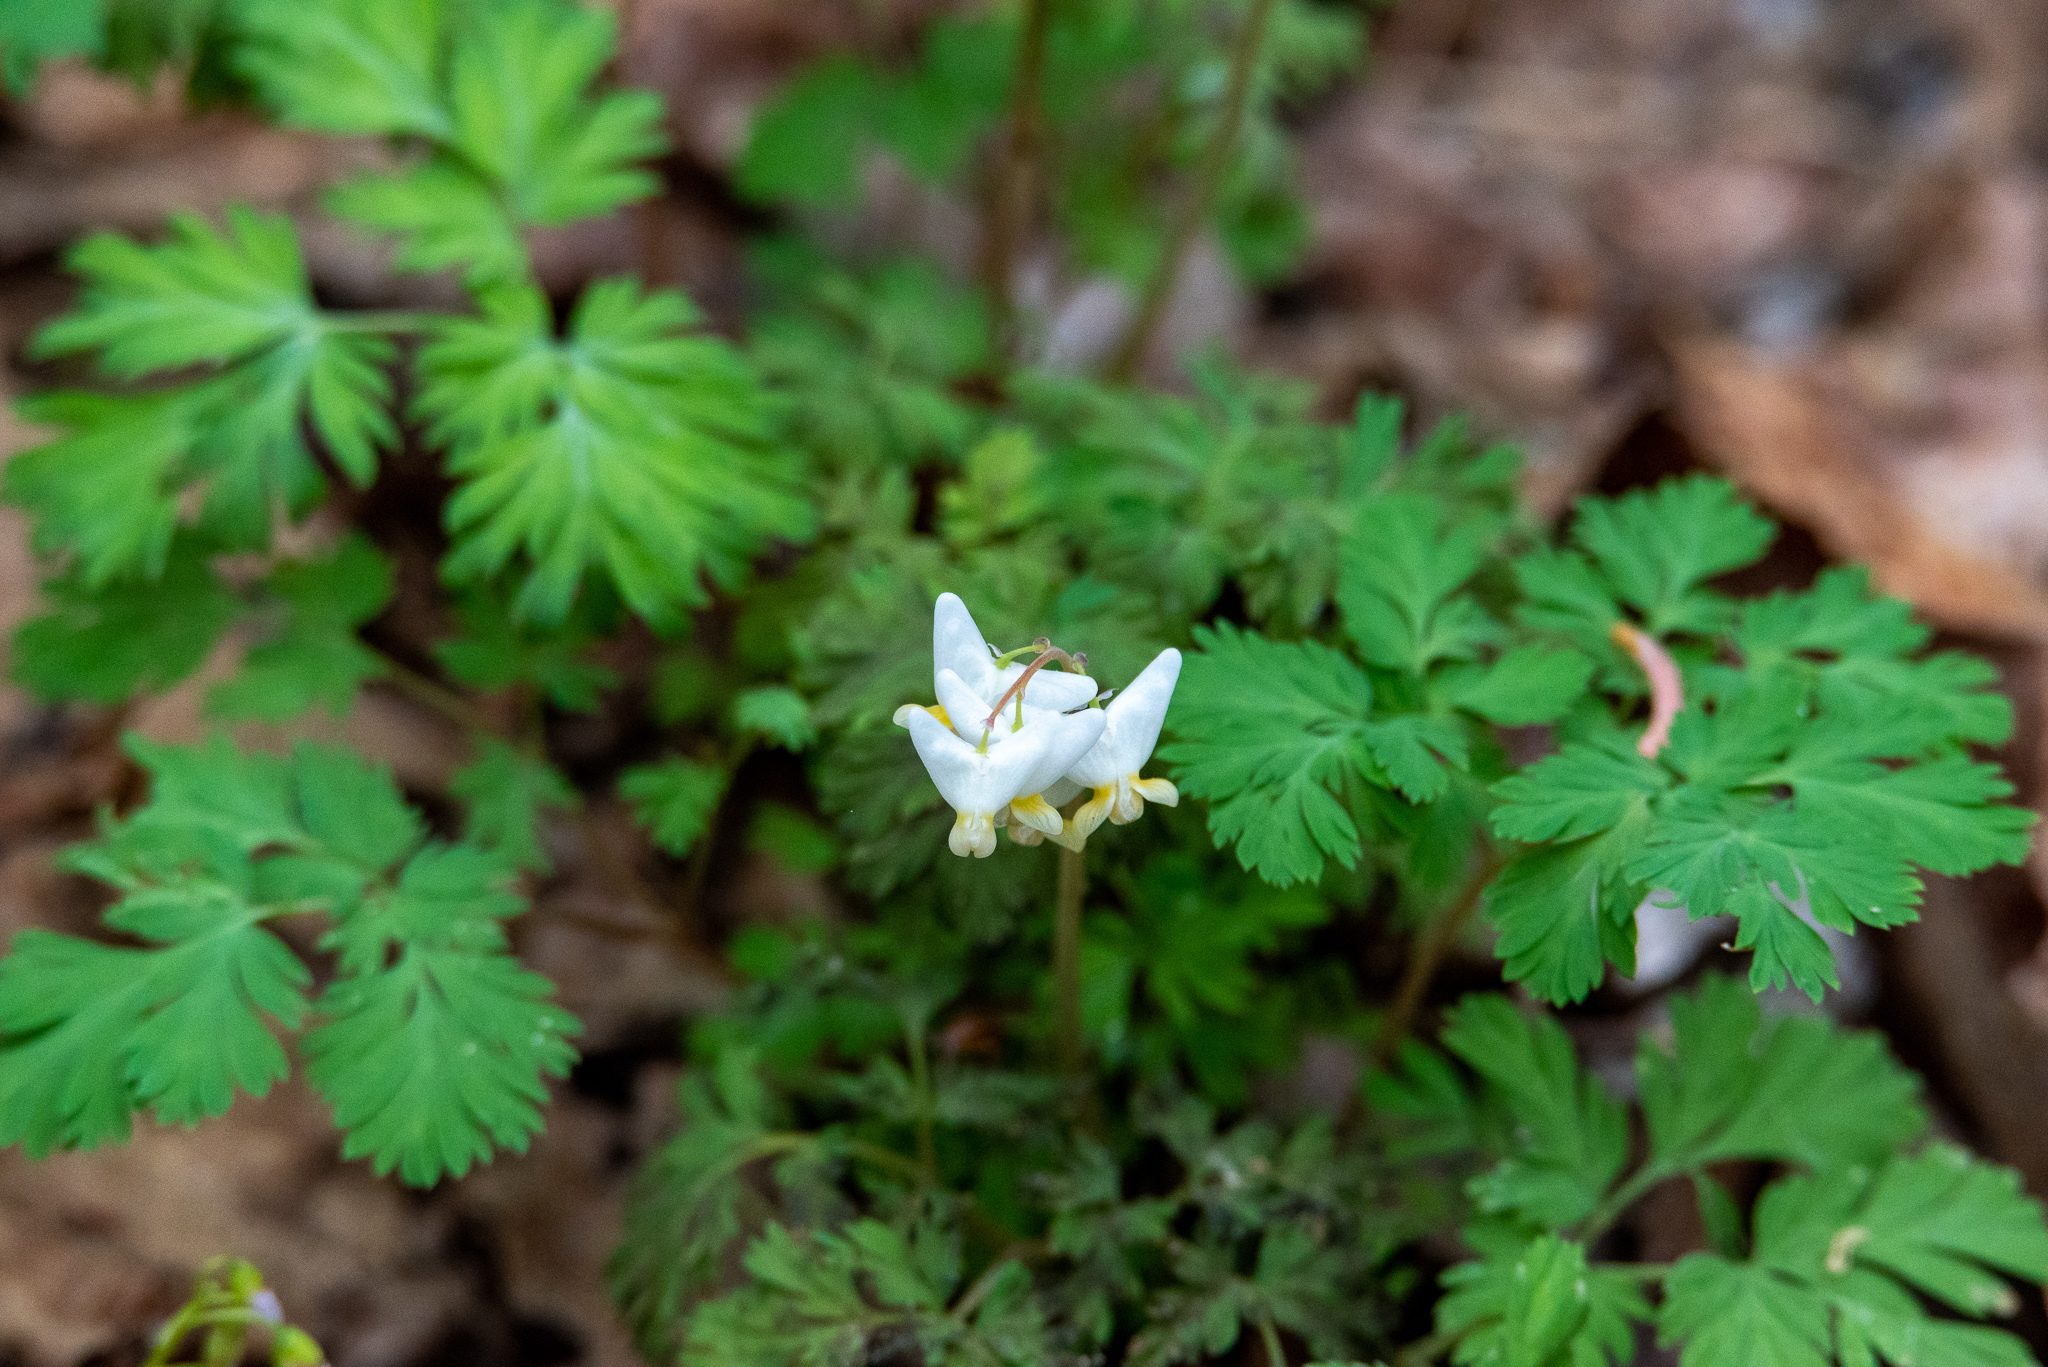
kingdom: Plantae
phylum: Tracheophyta
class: Magnoliopsida
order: Ranunculales
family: Papaveraceae
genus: Dicentra
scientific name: Dicentra cucullaria
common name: Dutchman's breeches
